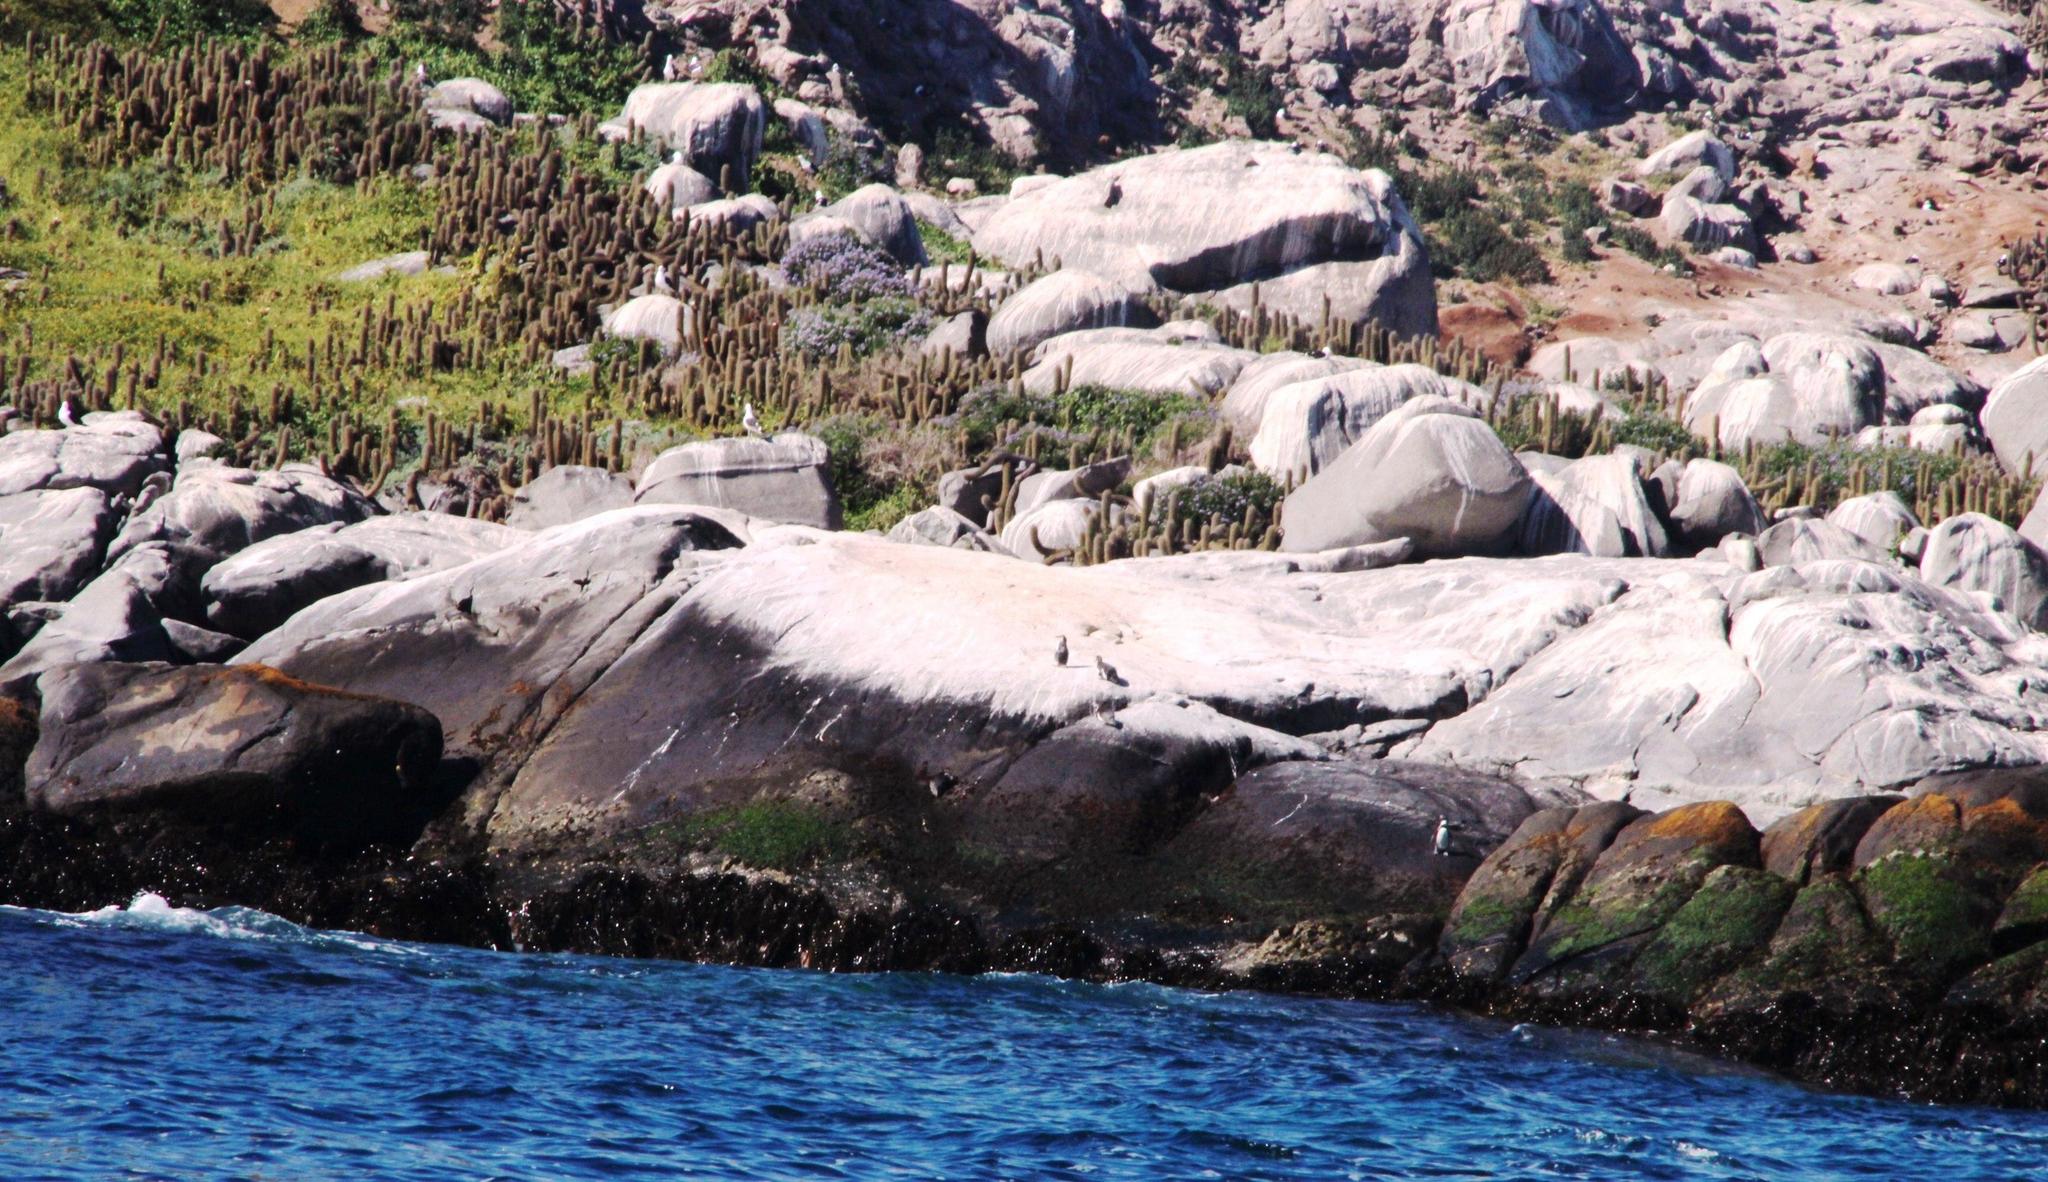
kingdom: Plantae
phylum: Tracheophyta
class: Magnoliopsida
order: Caryophyllales
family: Cactaceae
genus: Leucostele
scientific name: Leucostele litoralis
